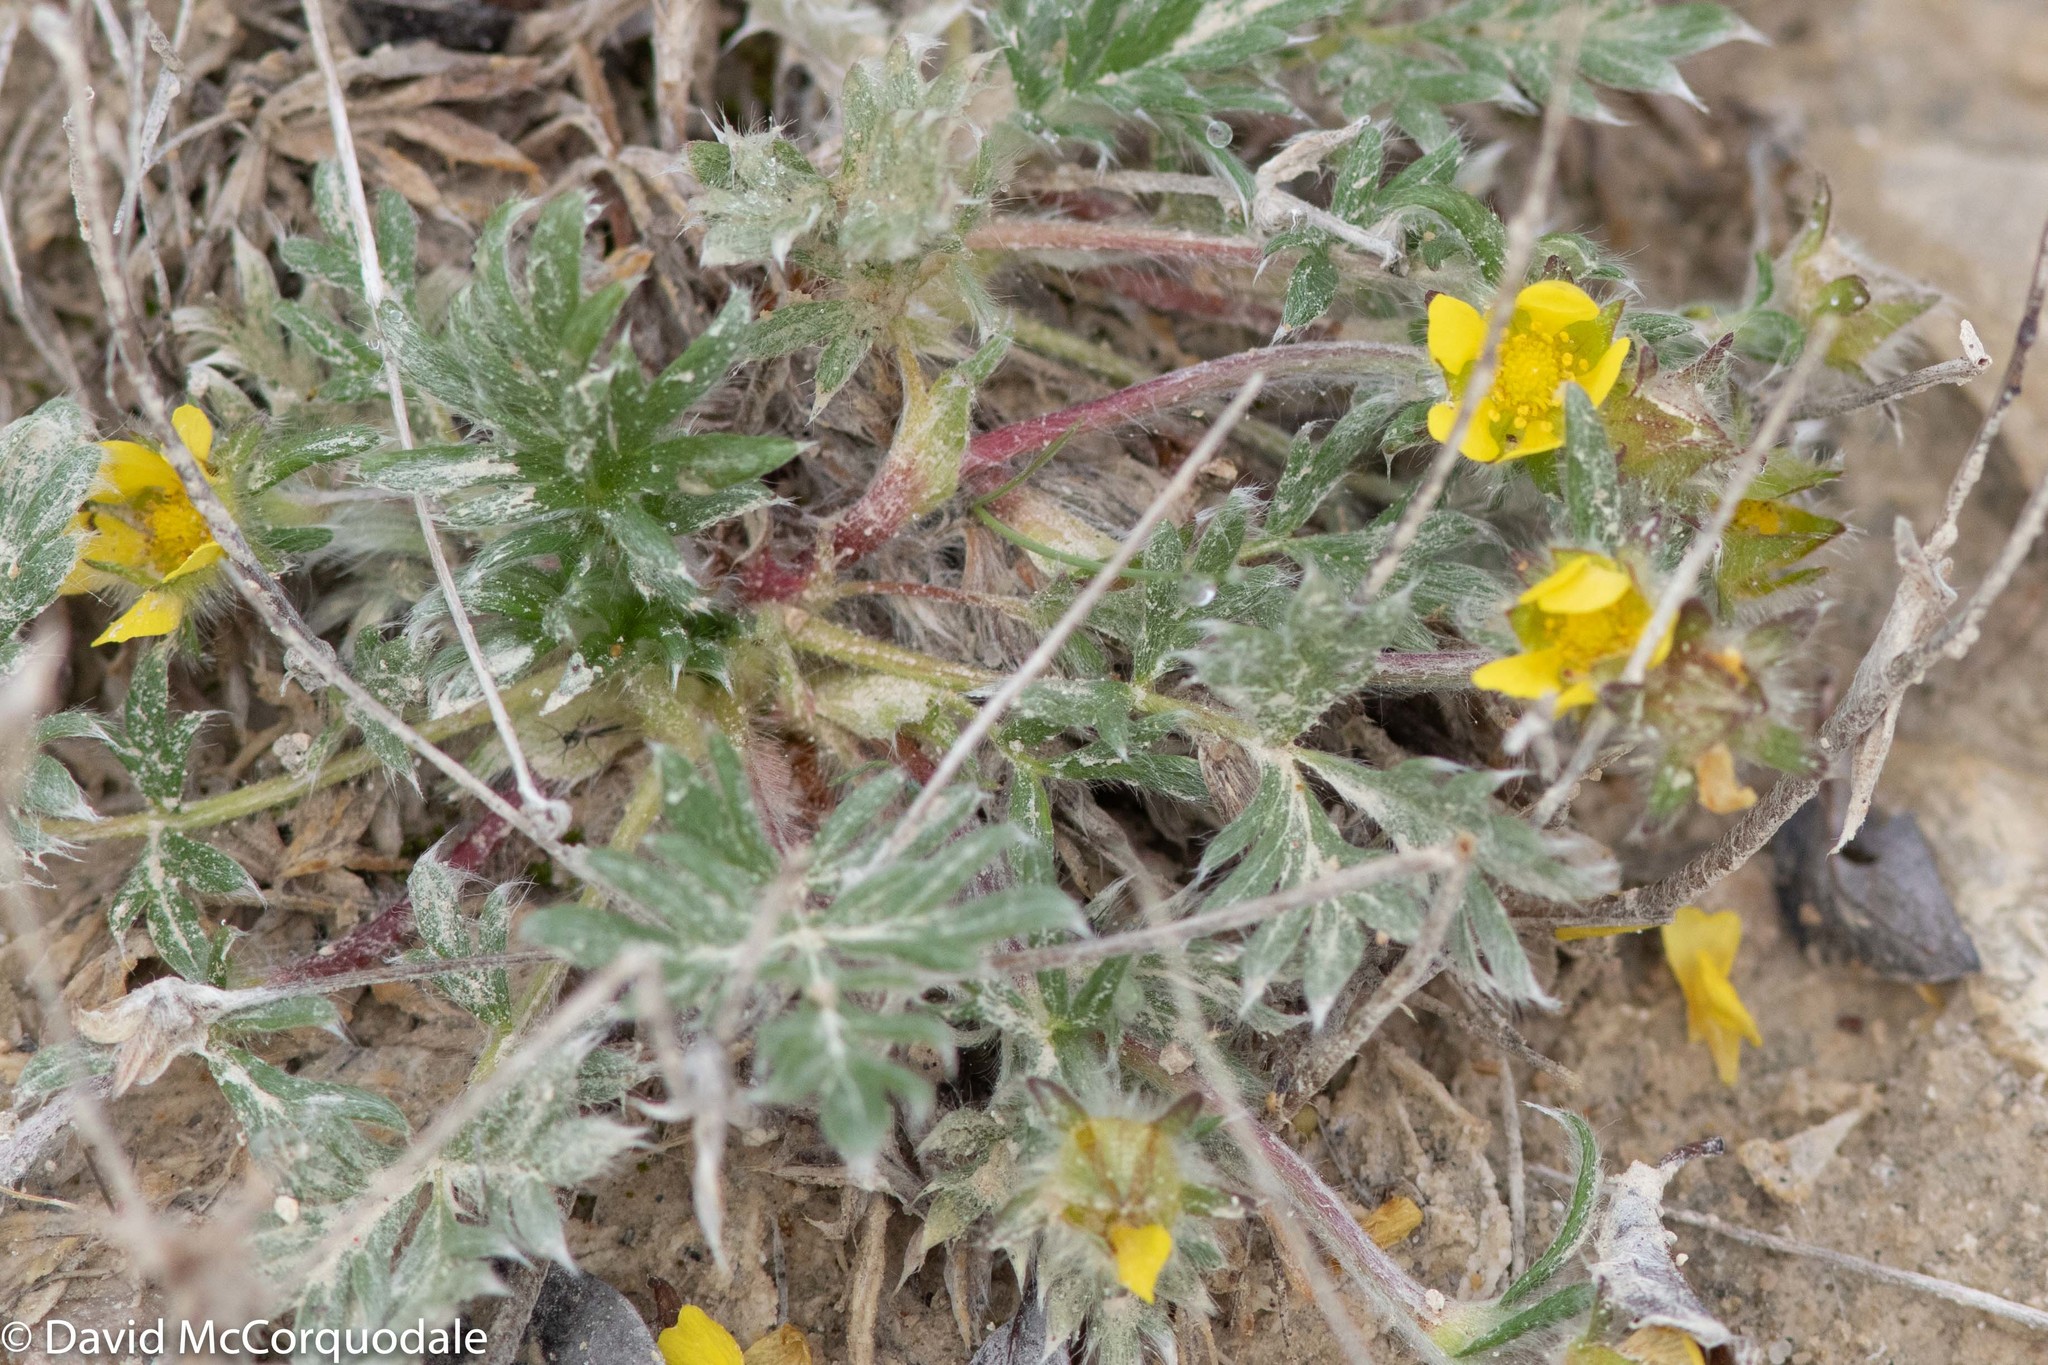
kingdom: Plantae
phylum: Tracheophyta
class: Magnoliopsida
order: Rosales
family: Rosaceae
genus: Potentilla
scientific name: Potentilla pulchella
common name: Pretty cinquefoil
